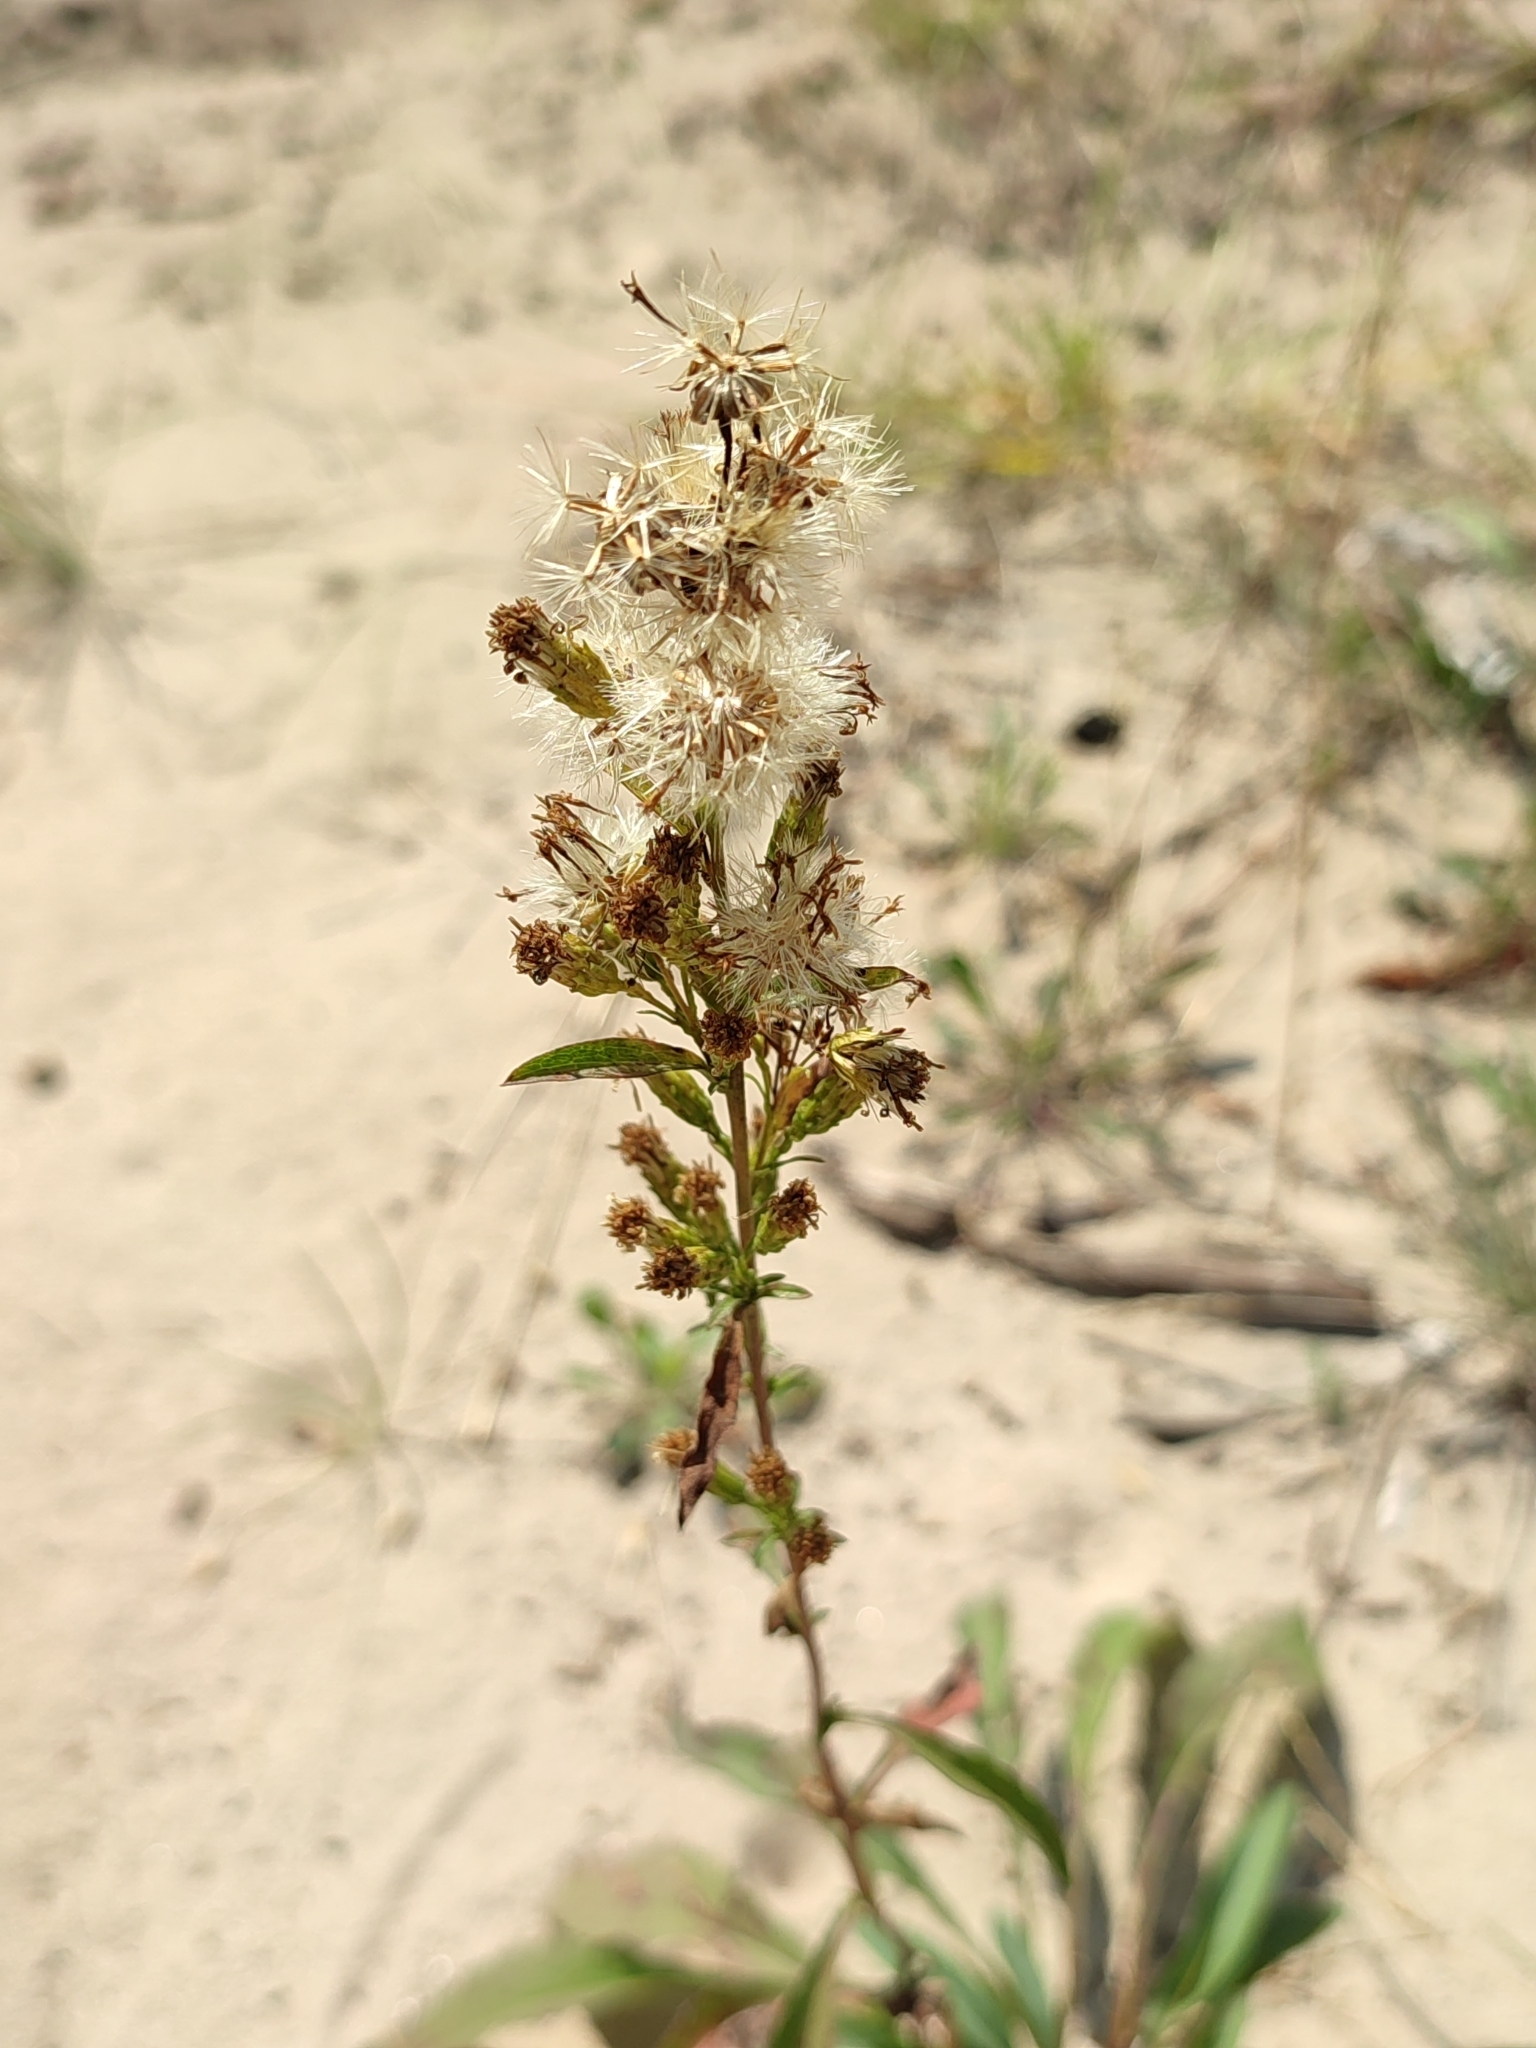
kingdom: Plantae
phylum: Tracheophyta
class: Magnoliopsida
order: Asterales
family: Asteraceae
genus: Solidago
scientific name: Solidago virgaurea
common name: Goldenrod
